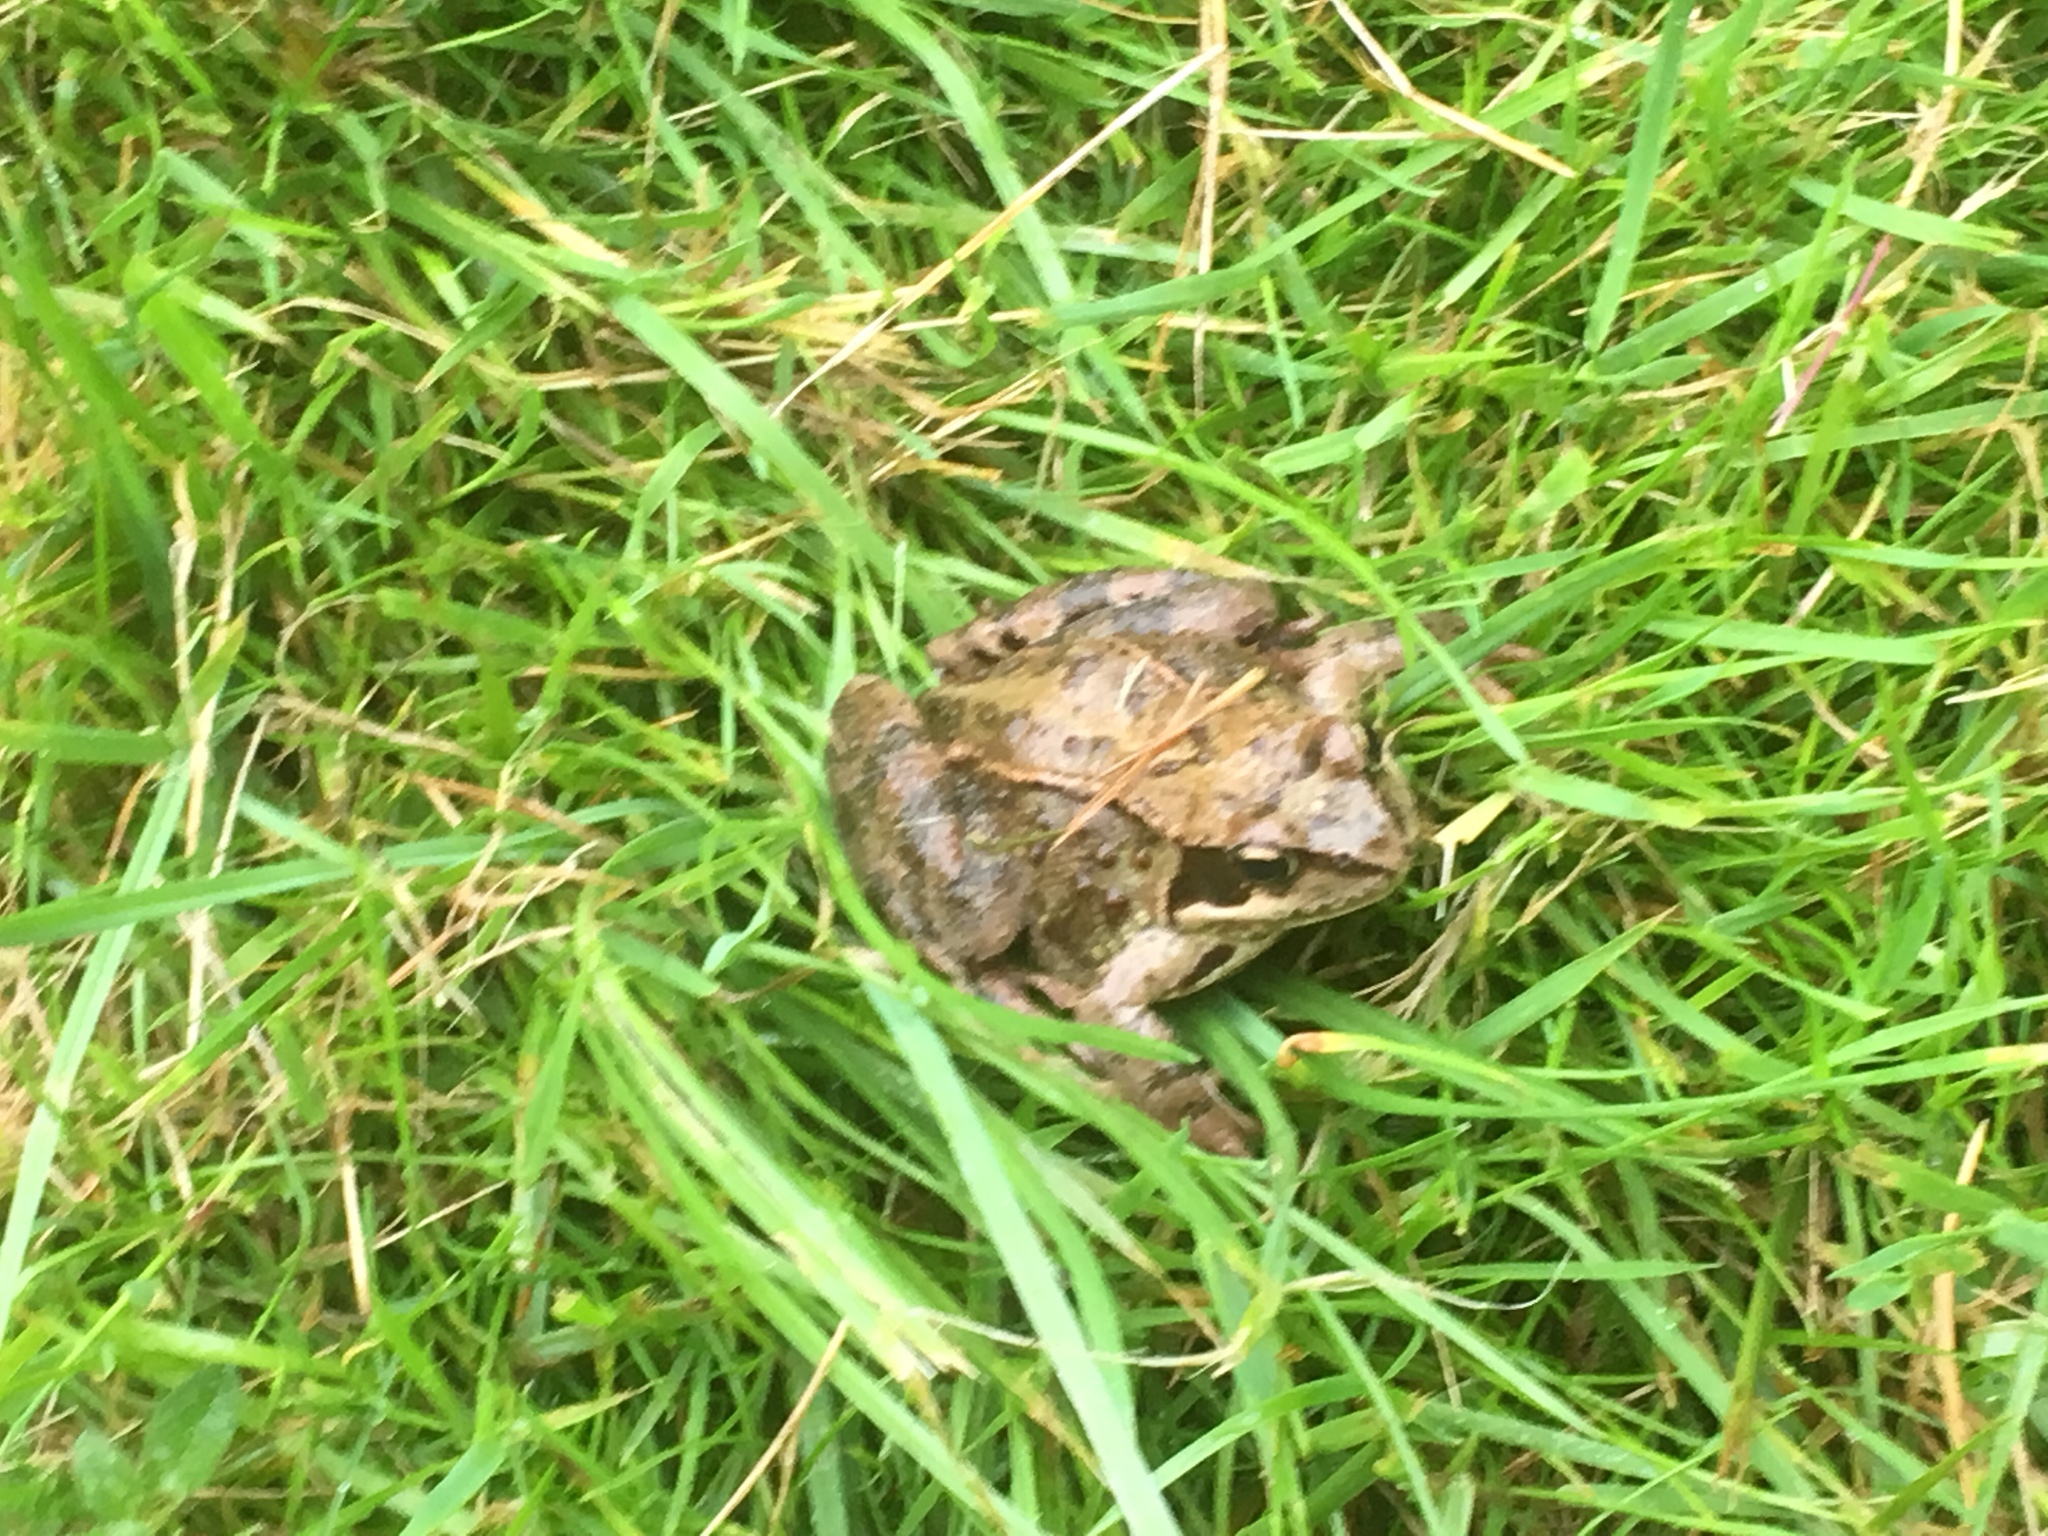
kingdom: Animalia
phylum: Chordata
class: Amphibia
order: Anura
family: Ranidae
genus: Rana
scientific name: Rana temporaria
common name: Common frog
